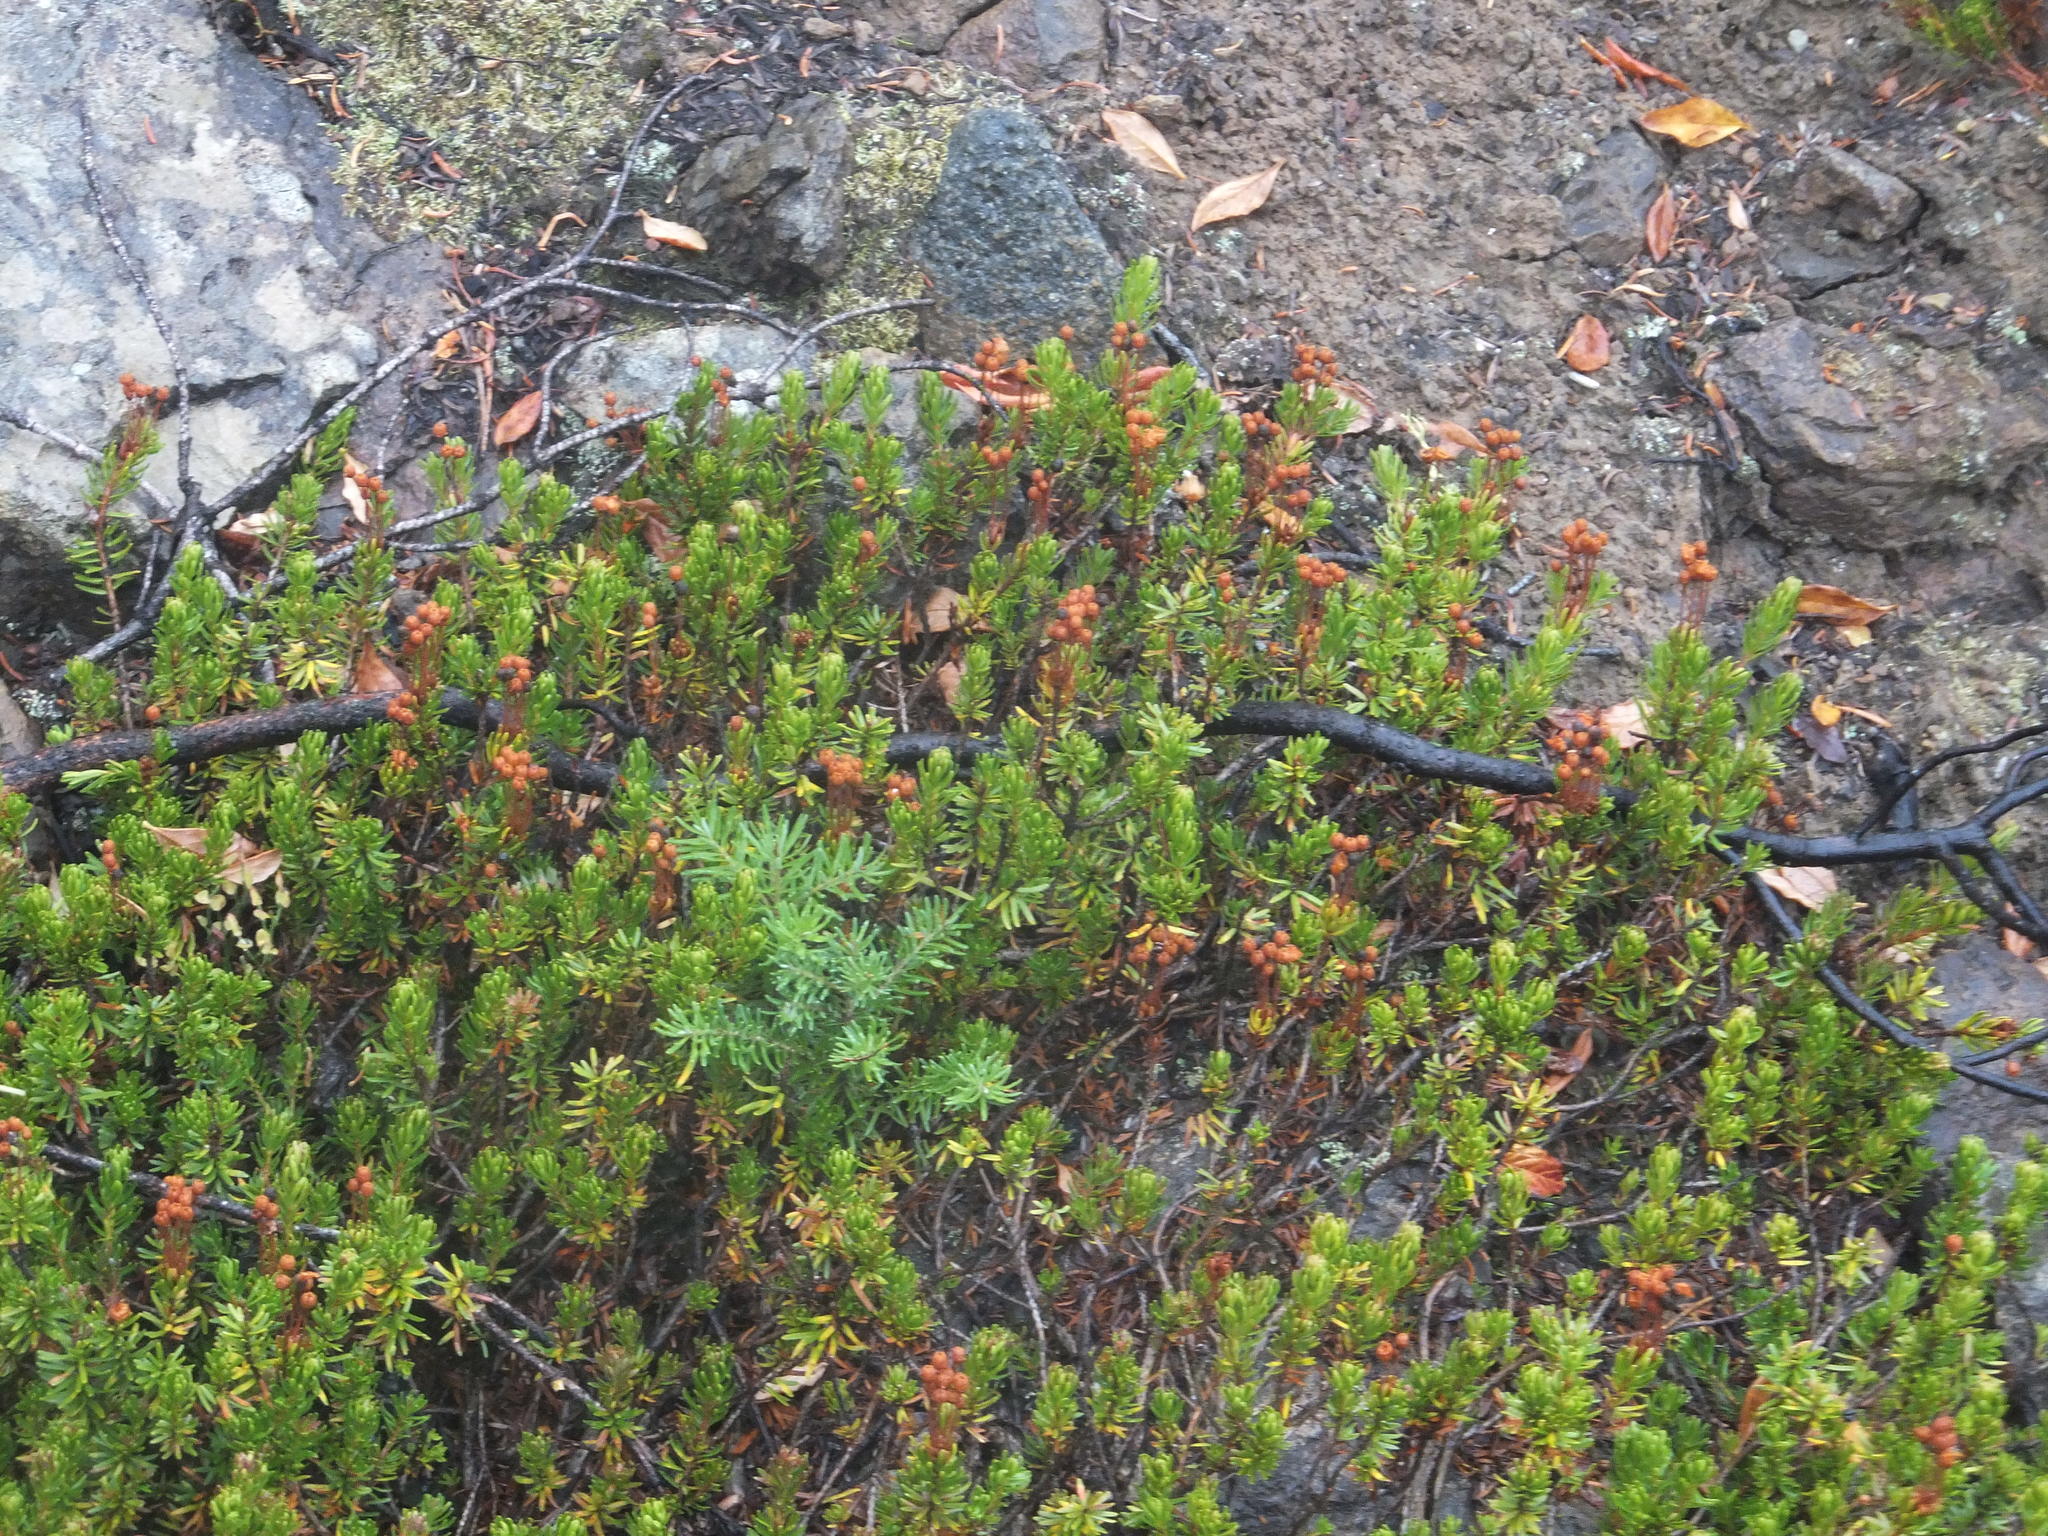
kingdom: Plantae
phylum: Tracheophyta
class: Magnoliopsida
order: Ericales
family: Ericaceae
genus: Phyllodoce
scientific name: Phyllodoce empetriformis
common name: Pink mountain heather
